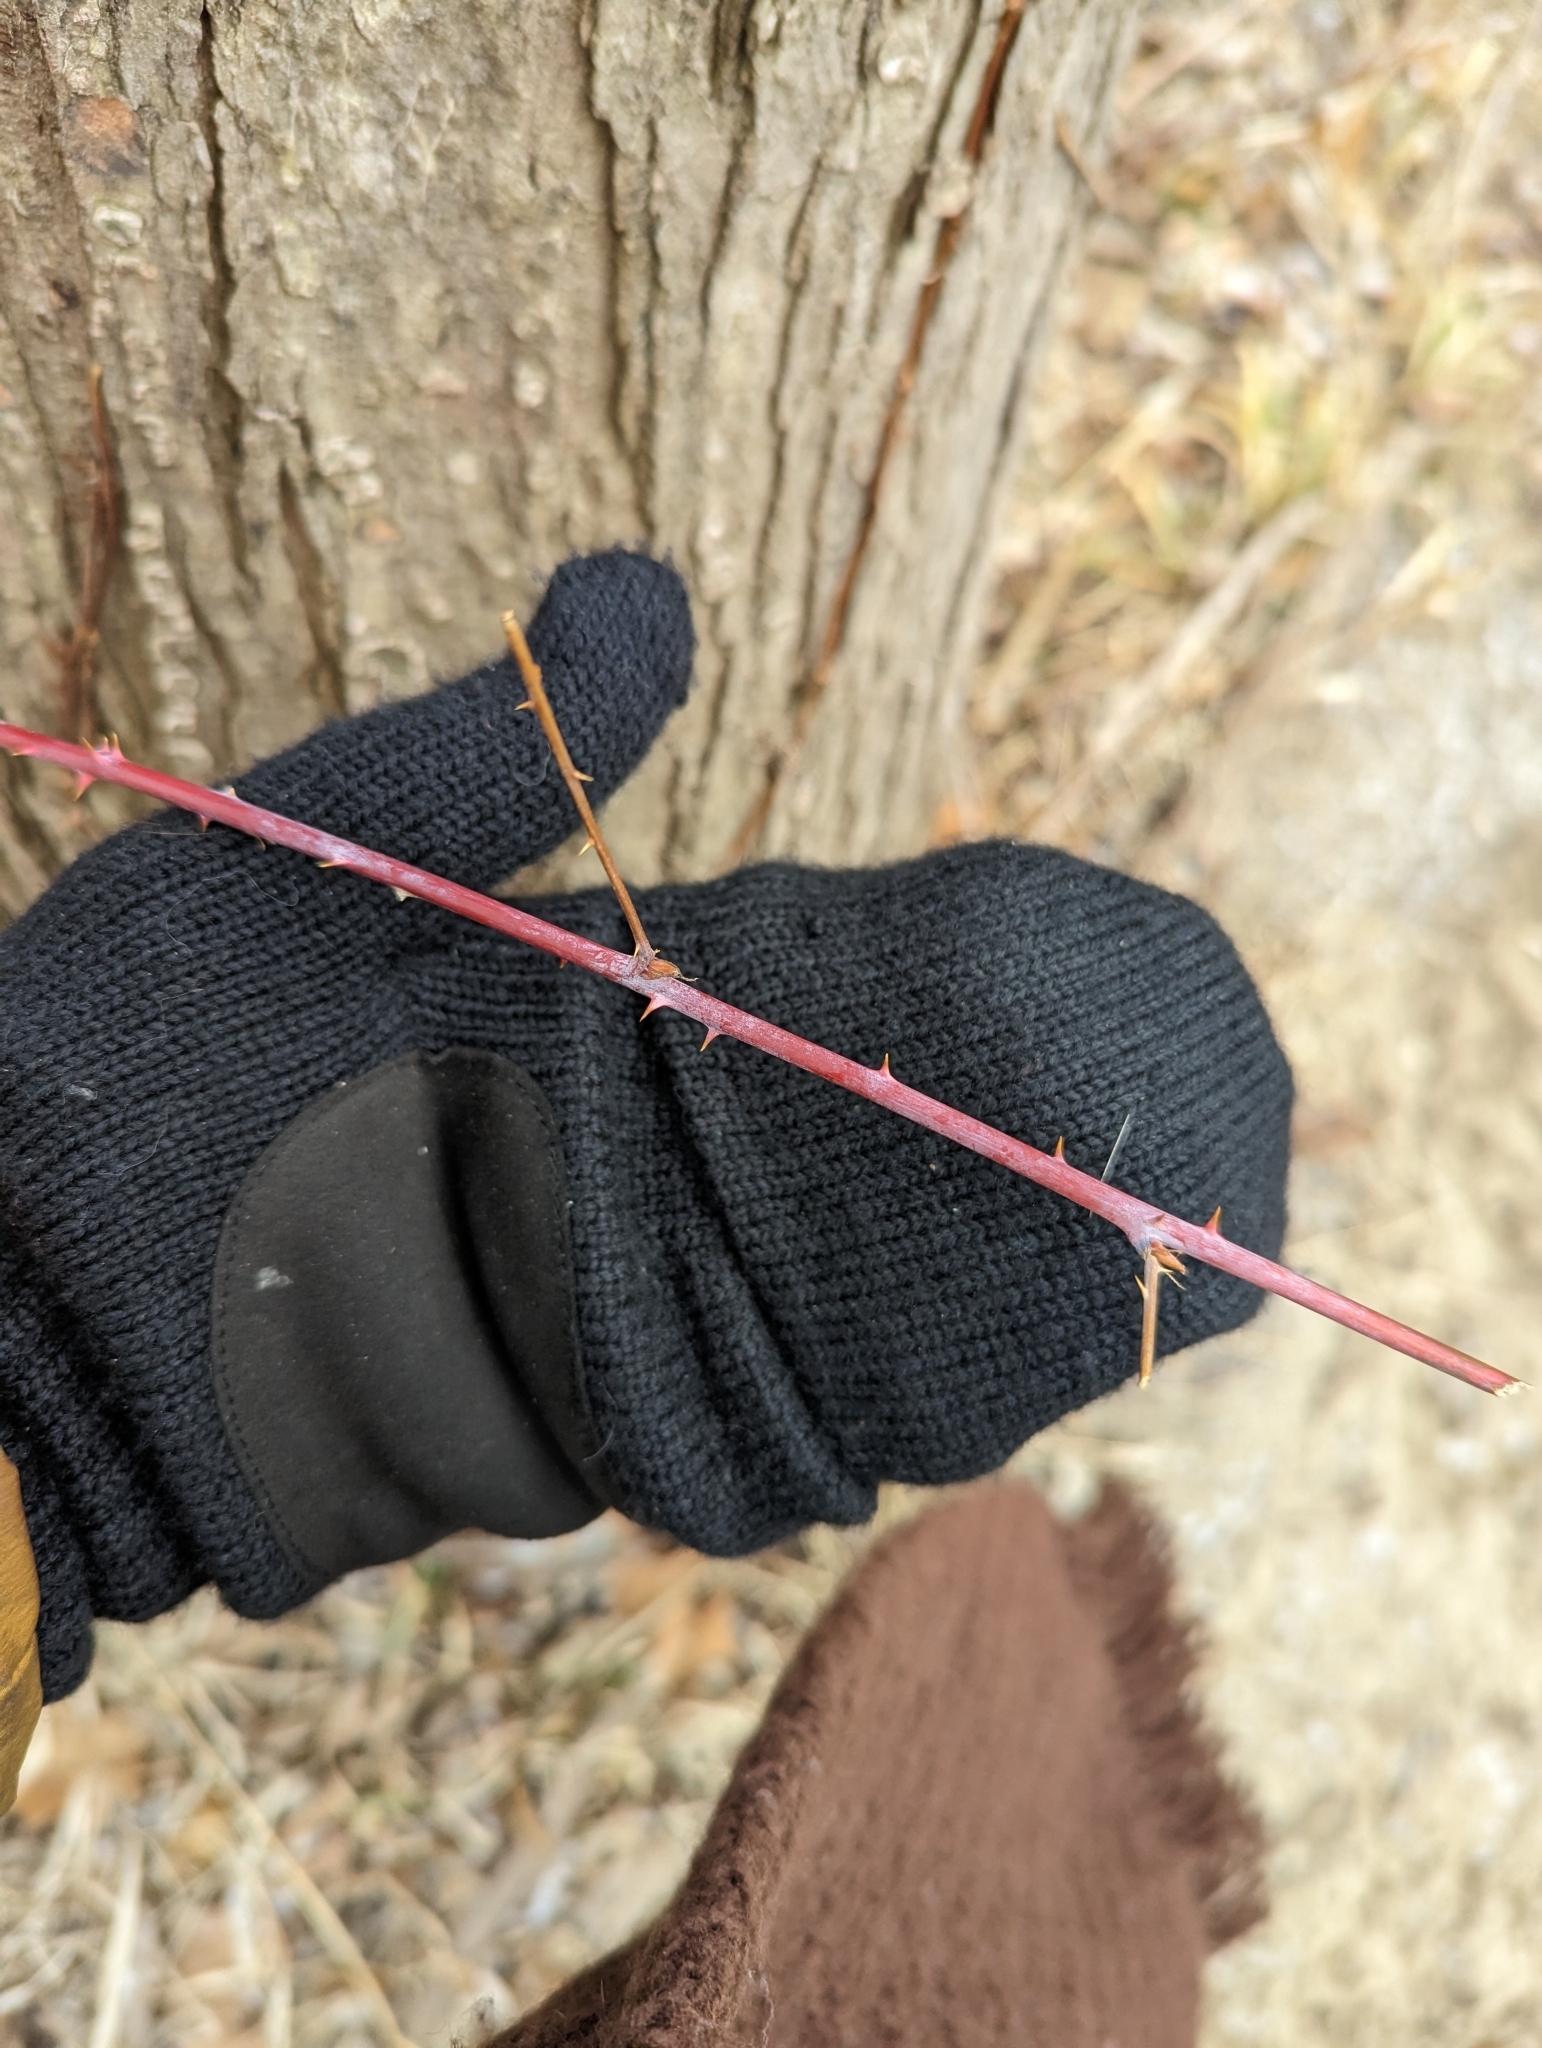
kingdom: Plantae
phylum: Tracheophyta
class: Magnoliopsida
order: Rosales
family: Rosaceae
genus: Rubus
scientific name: Rubus occidentalis
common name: Black raspberry
